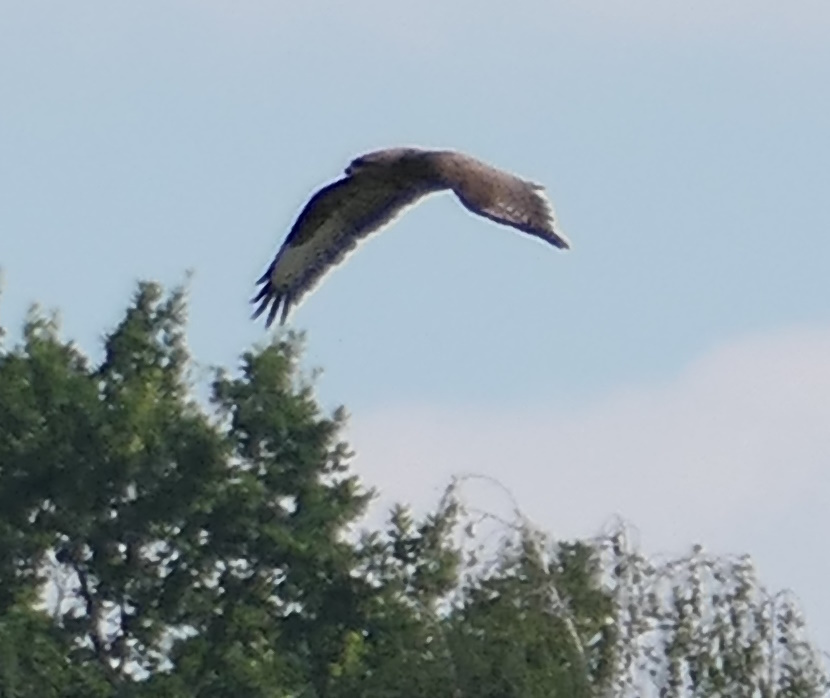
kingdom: Animalia
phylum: Chordata
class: Aves
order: Accipitriformes
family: Accipitridae
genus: Buteo
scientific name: Buteo buteo
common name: Common buzzard
